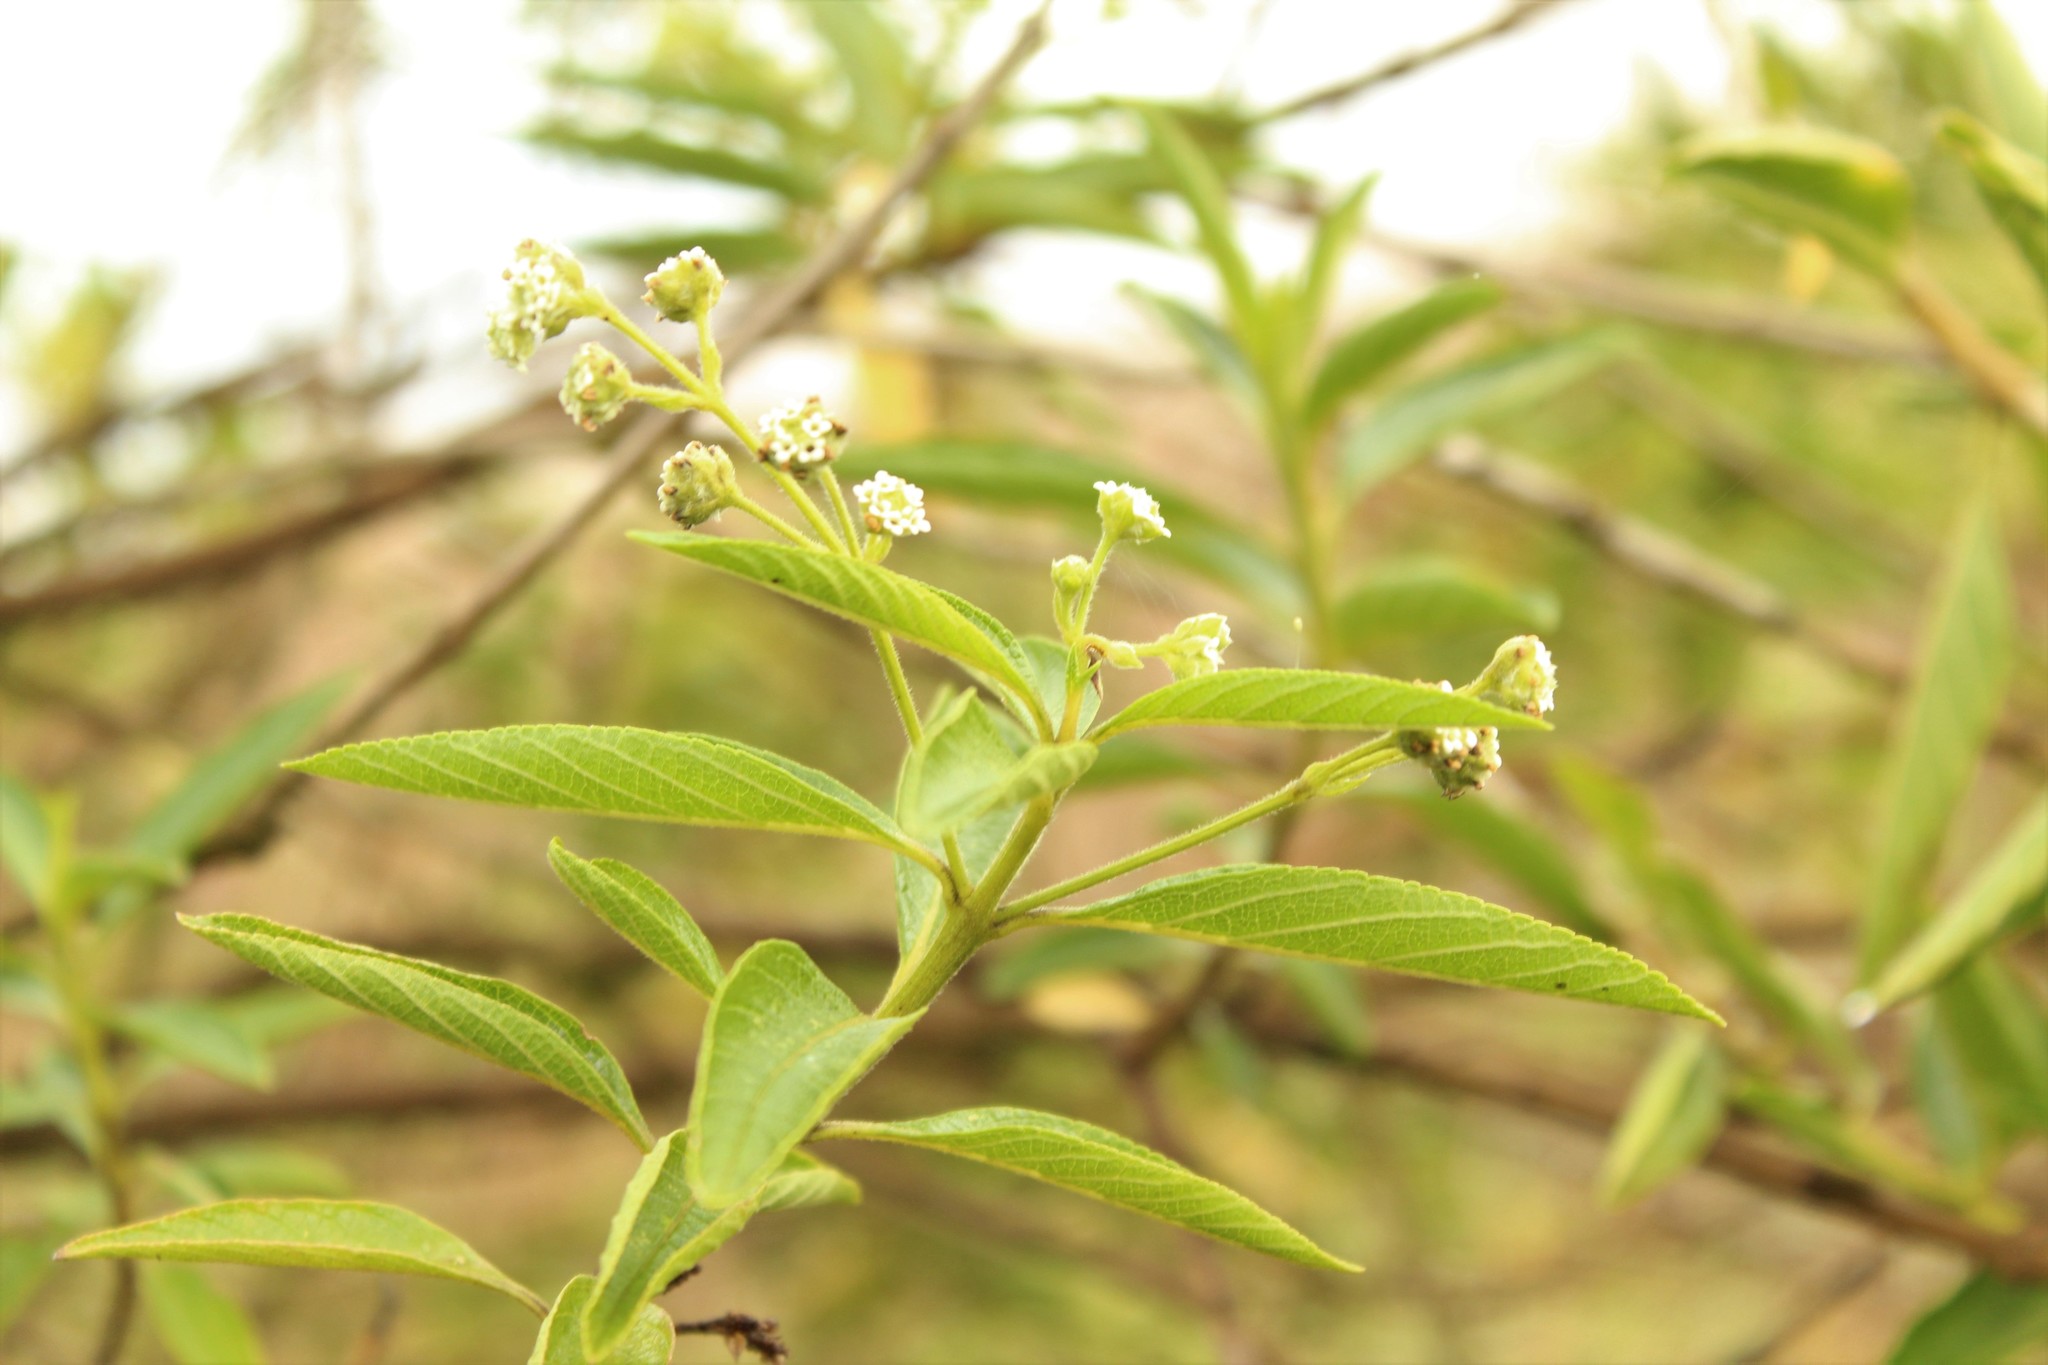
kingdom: Plantae
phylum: Tracheophyta
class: Magnoliopsida
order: Lamiales
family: Verbenaceae
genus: Lippia
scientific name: Lippia hirsuta
